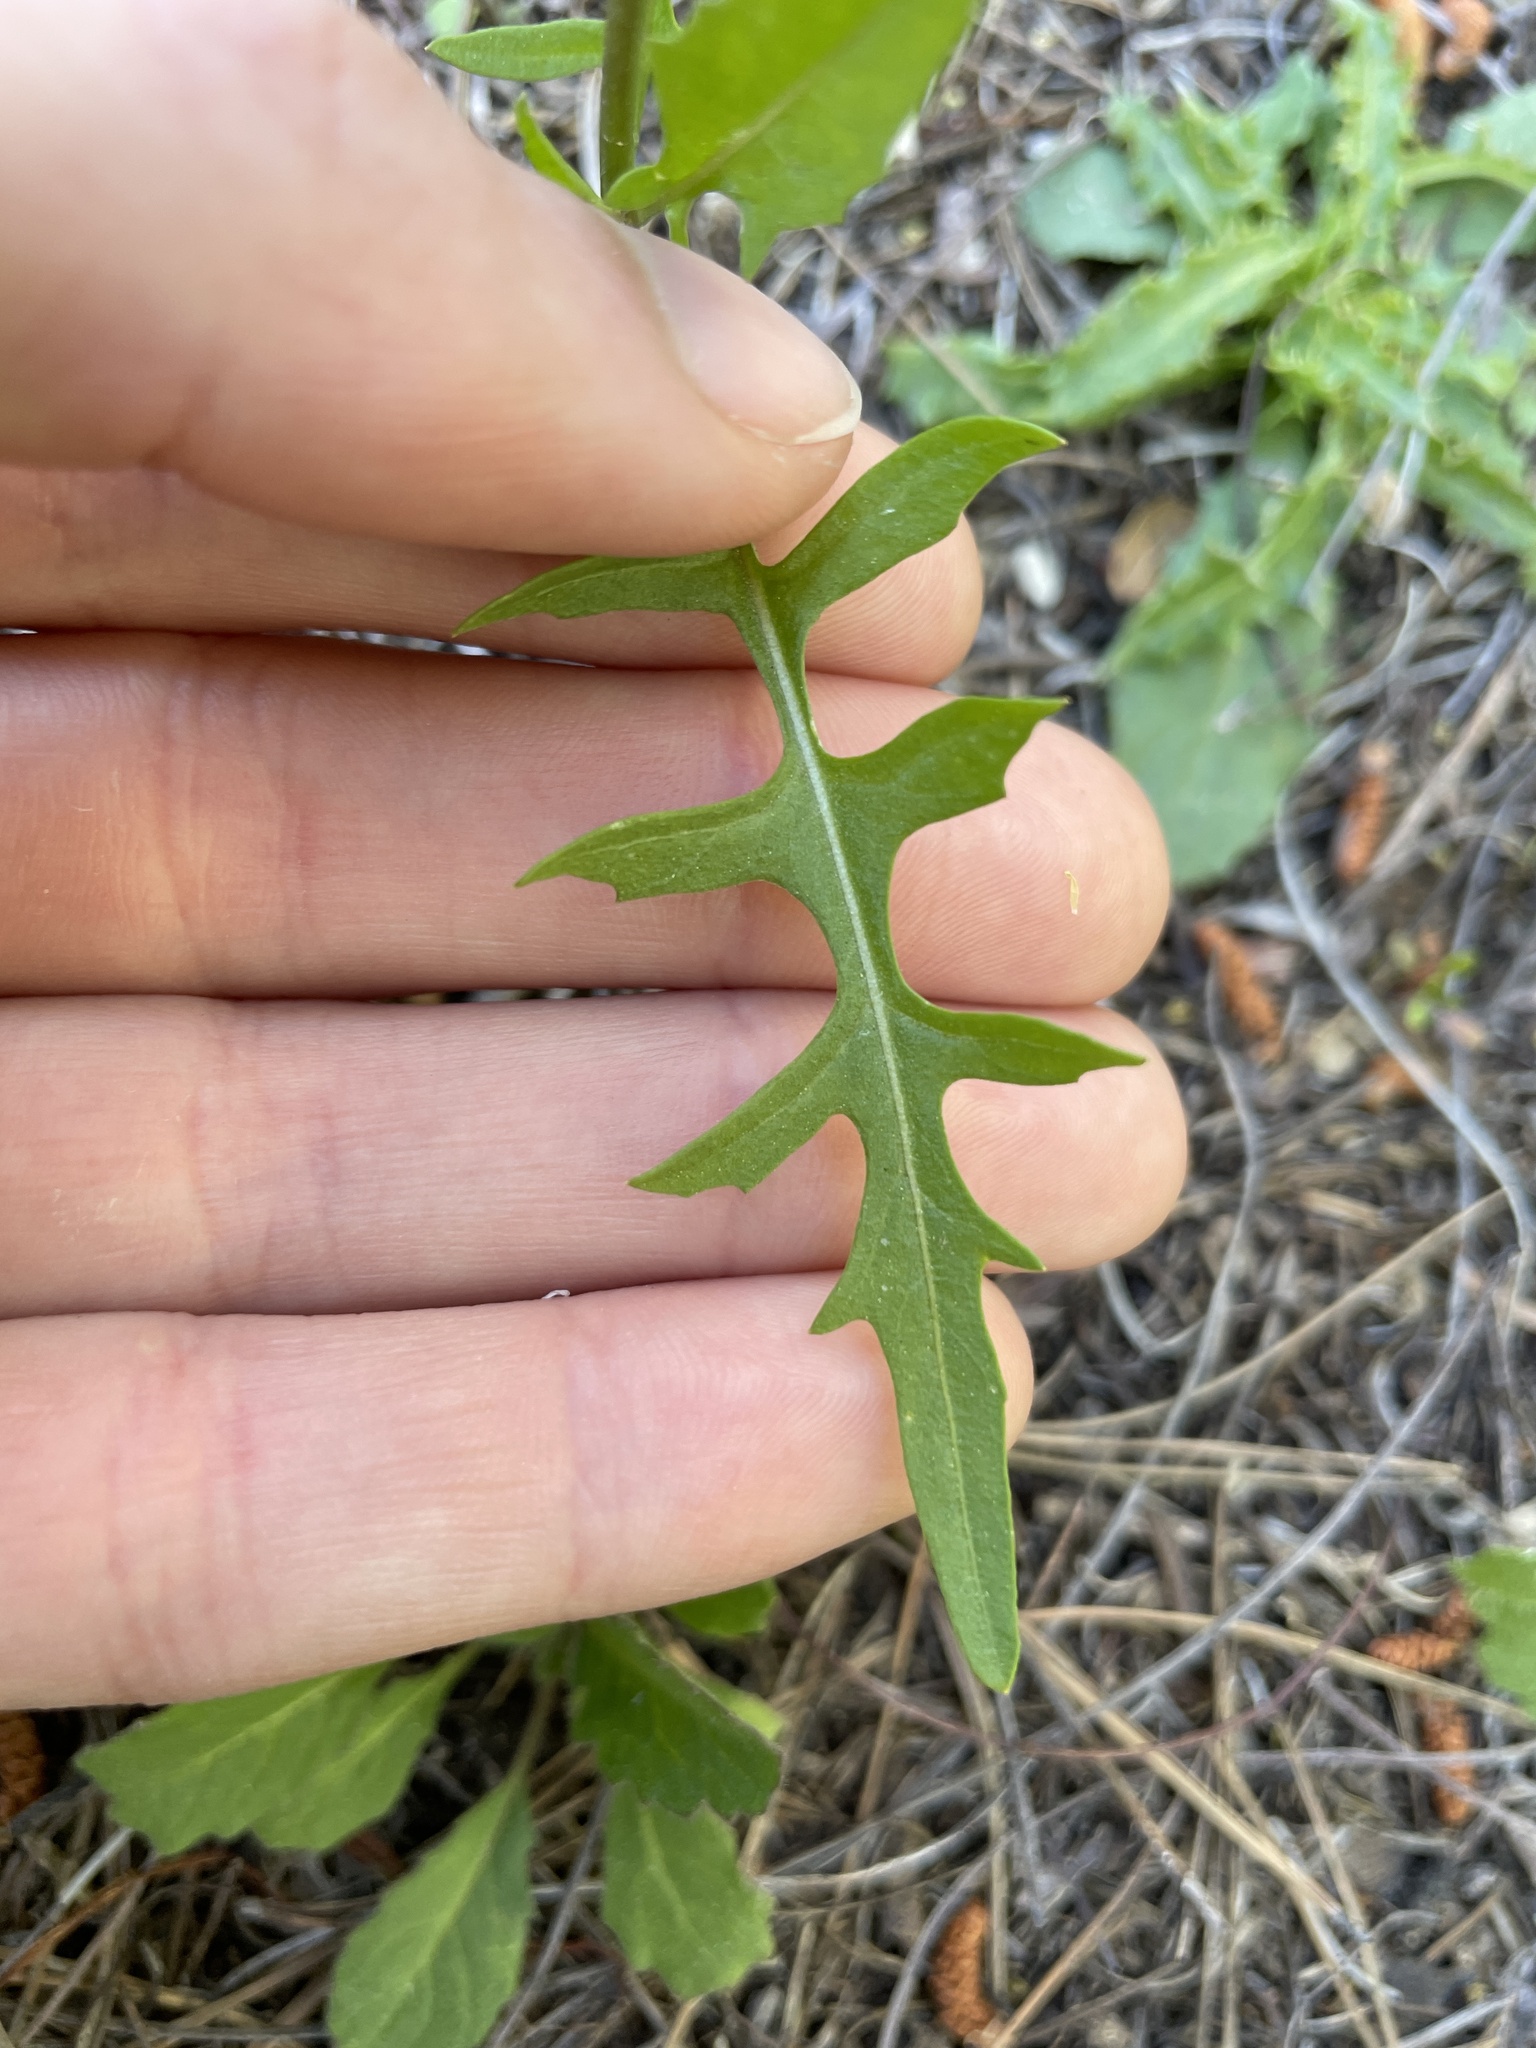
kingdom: Plantae
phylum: Tracheophyta
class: Magnoliopsida
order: Brassicales
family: Brassicaceae
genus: Sisymbrium
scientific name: Sisymbrium irio
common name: London rocket
